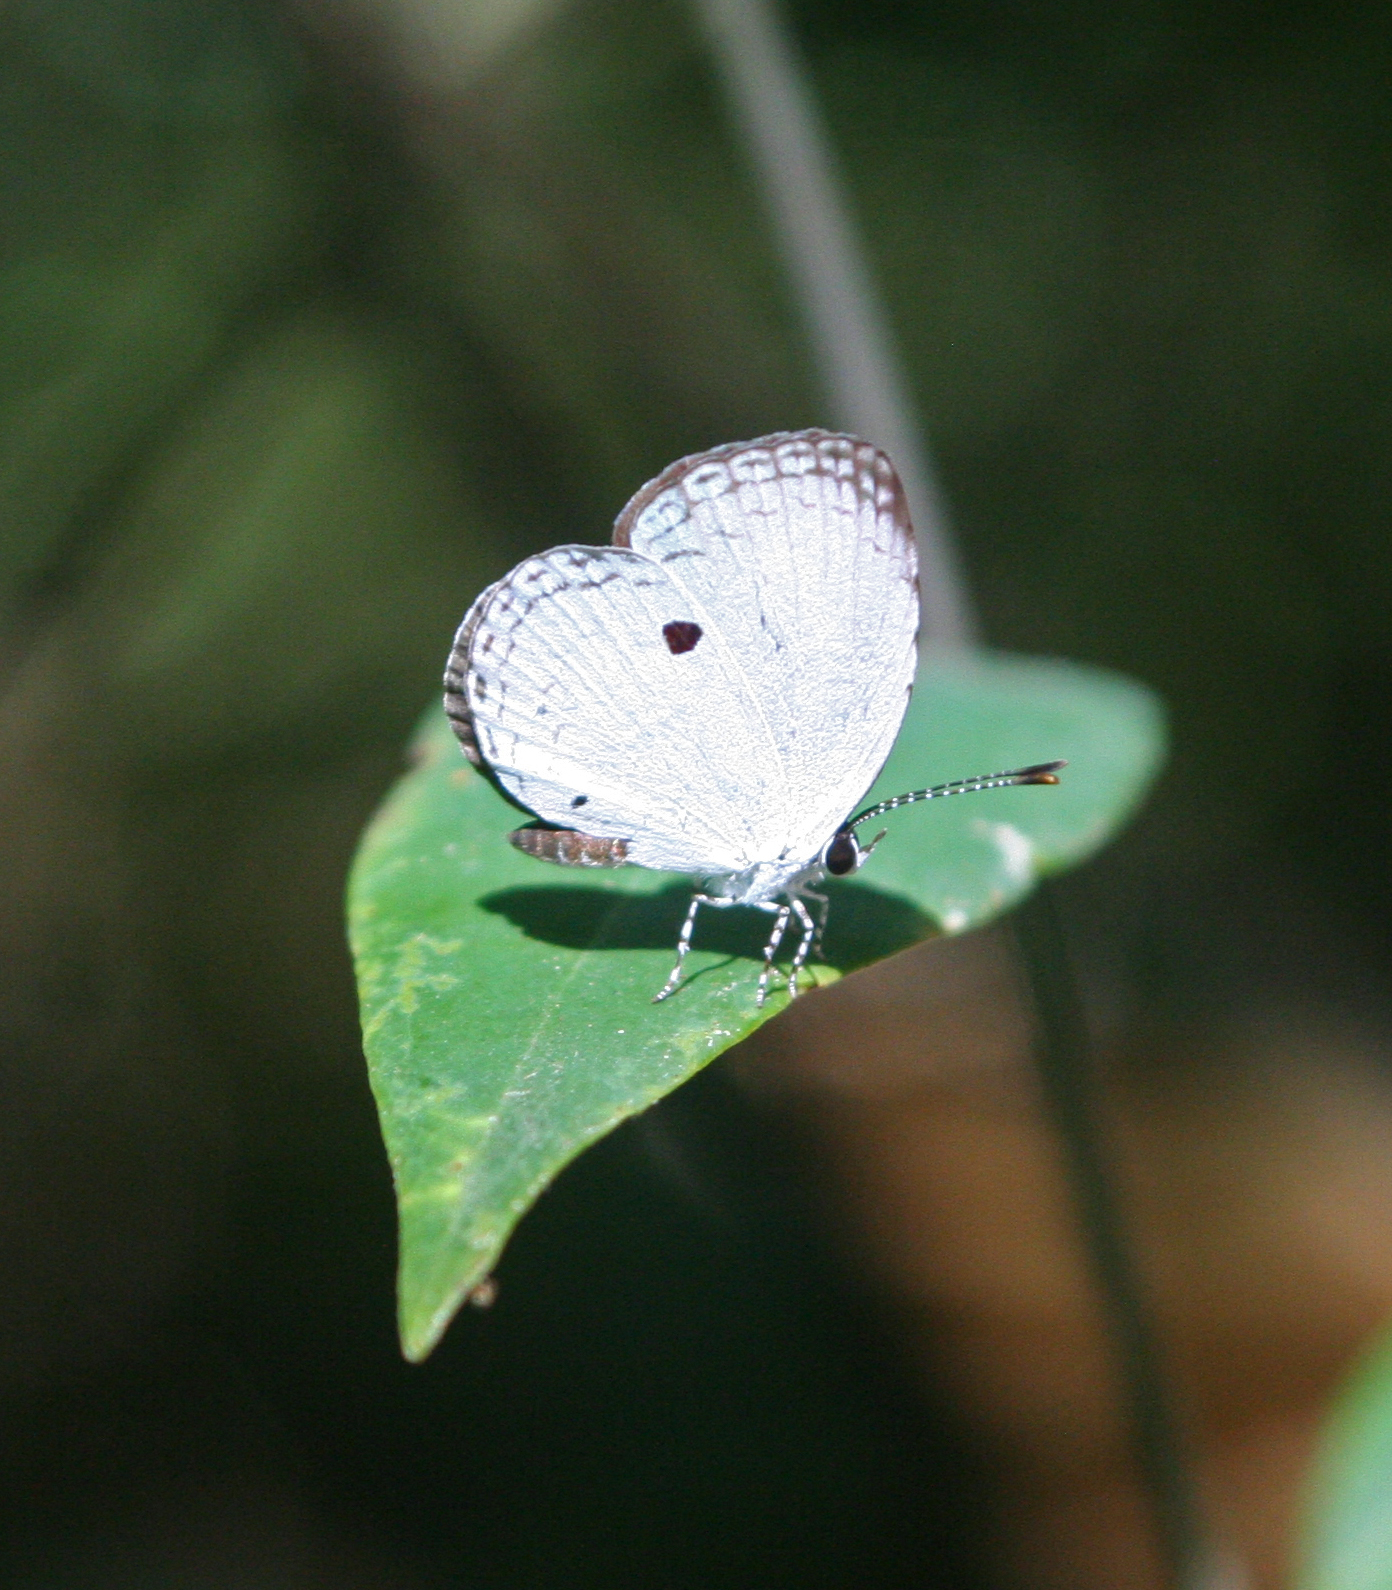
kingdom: Animalia
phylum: Arthropoda
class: Insecta
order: Lepidoptera
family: Lycaenidae
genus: Neopithecops
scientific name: Neopithecops zalmora
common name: Quaker
